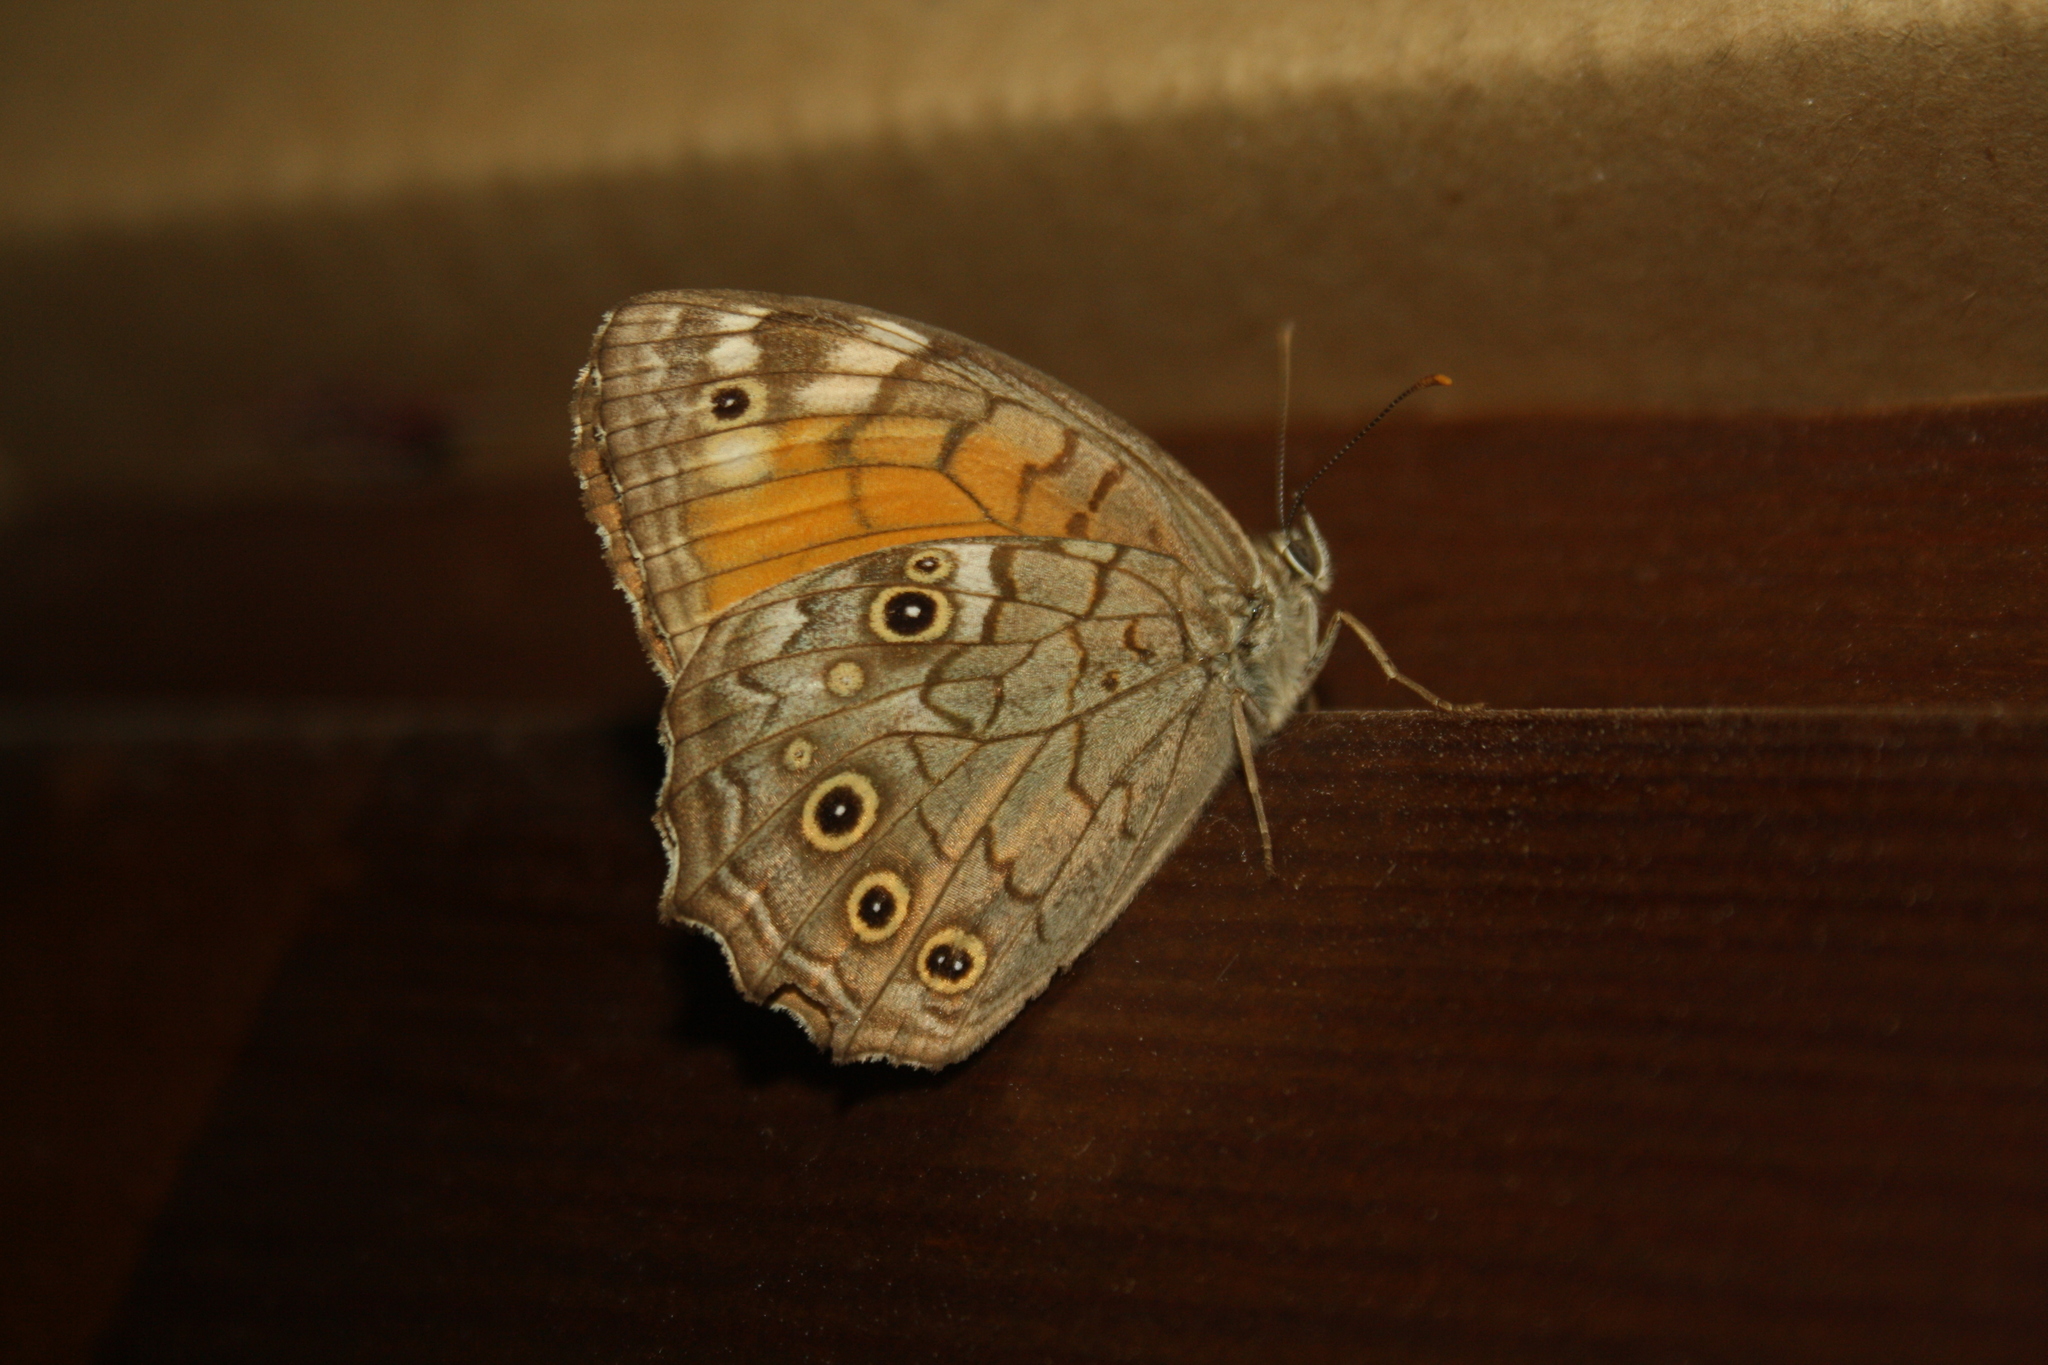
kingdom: Animalia
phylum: Arthropoda
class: Insecta
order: Lepidoptera
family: Nymphalidae
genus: Kirinia
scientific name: Kirinia roxelana
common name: Lattice brown
